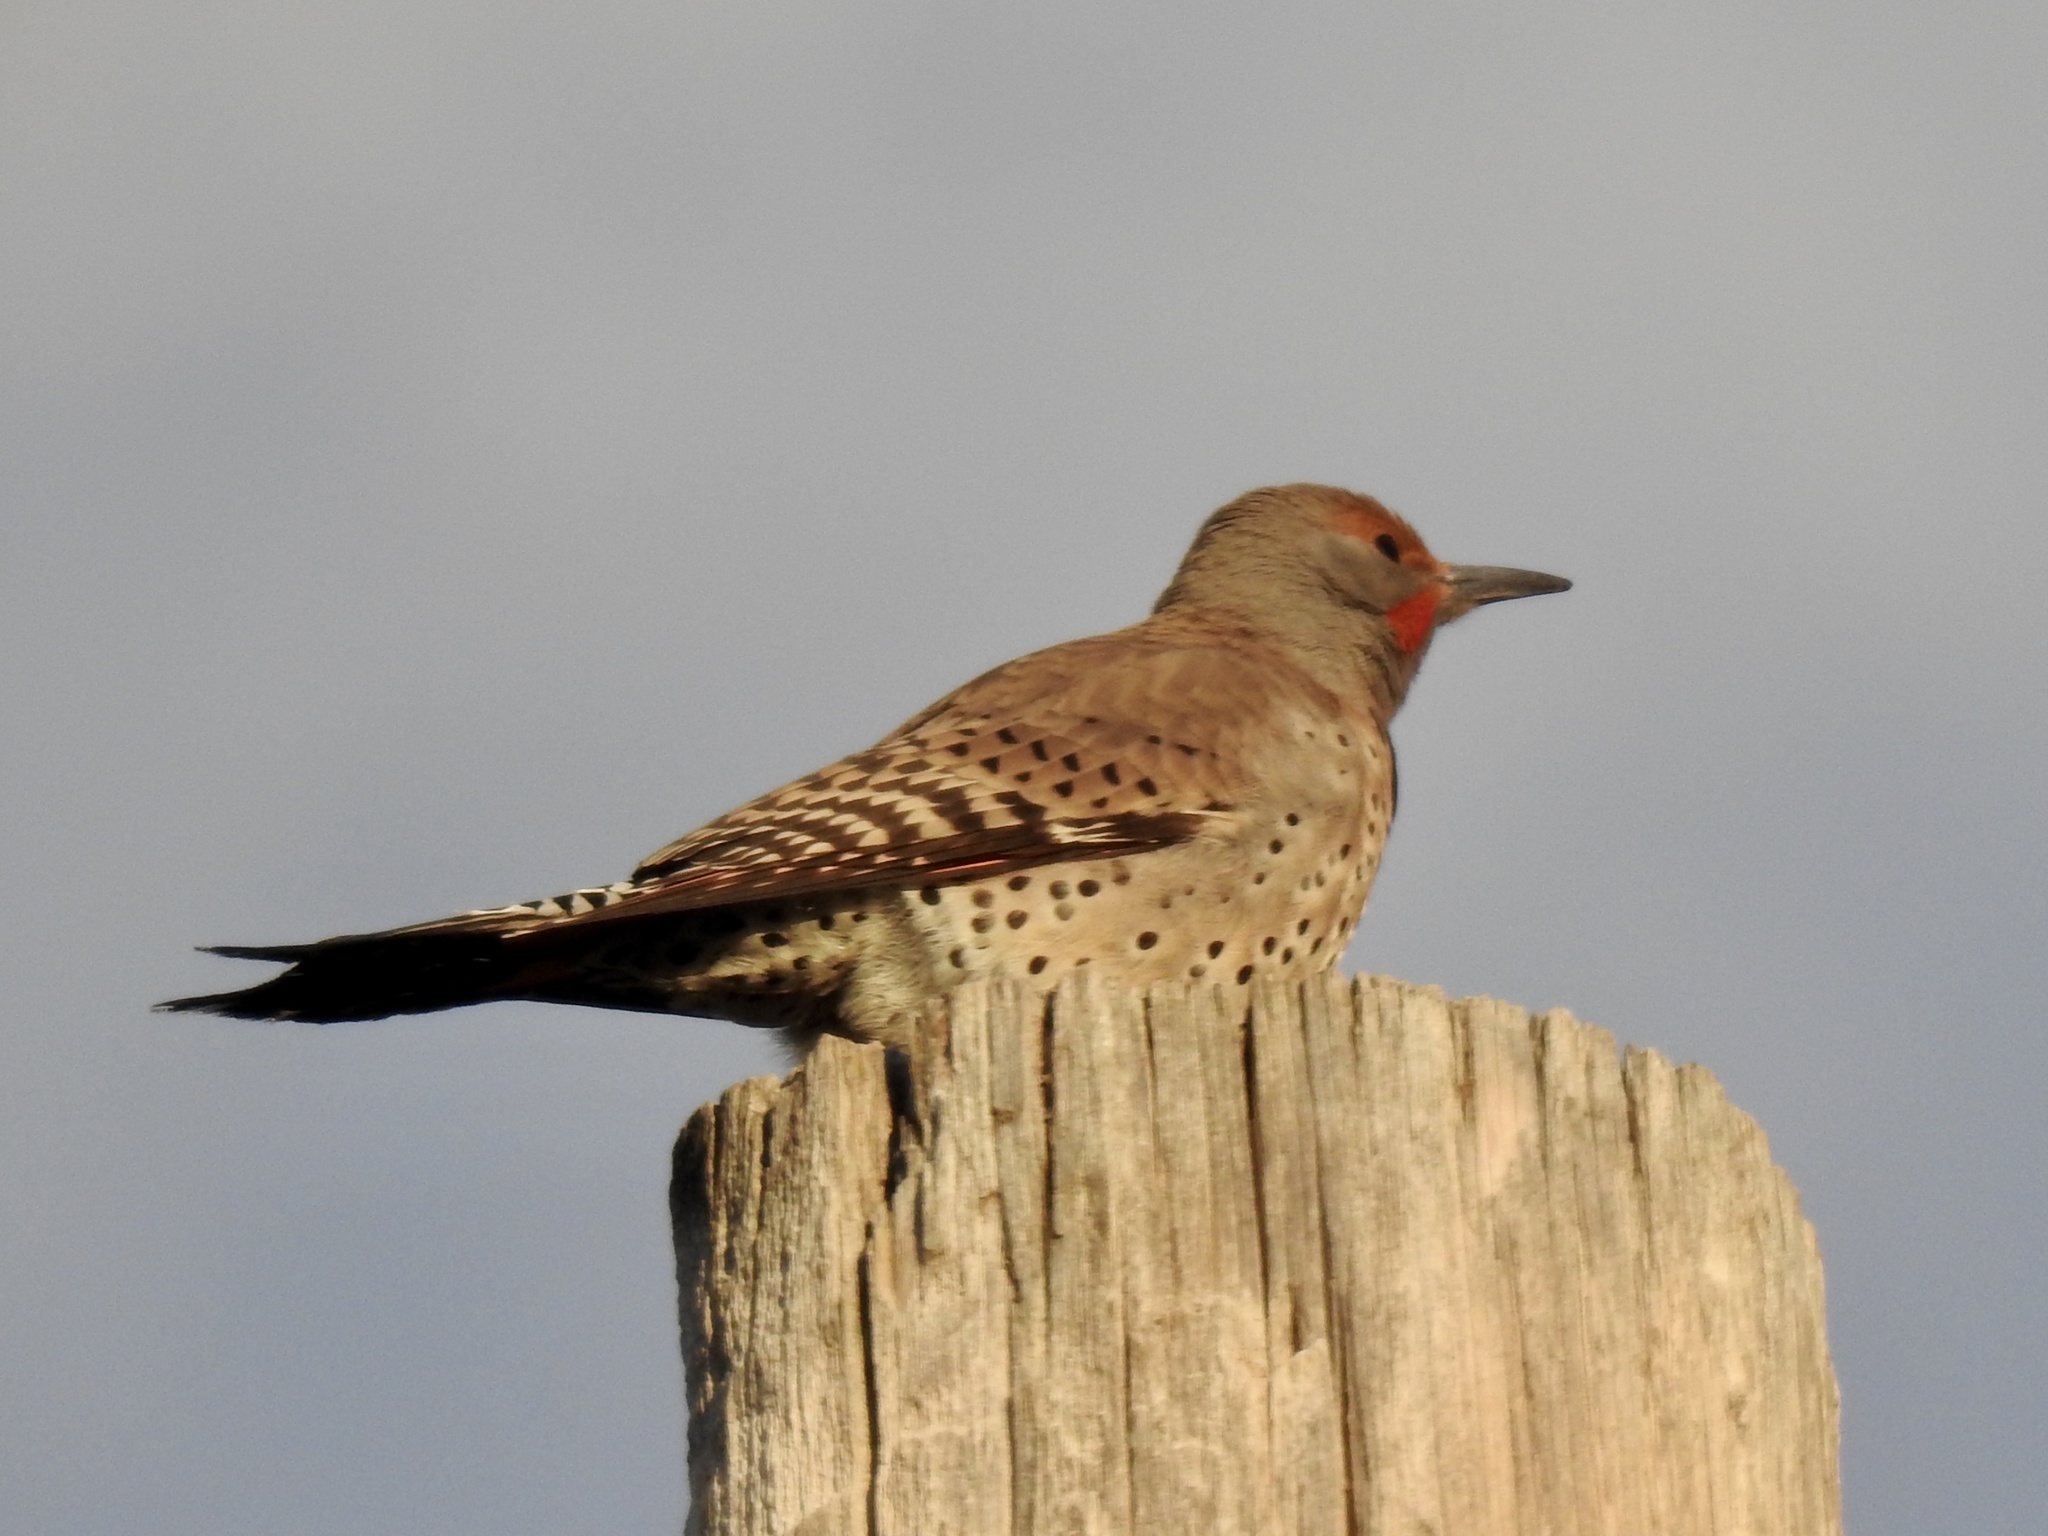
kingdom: Animalia
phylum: Chordata
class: Aves
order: Piciformes
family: Picidae
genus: Colaptes
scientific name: Colaptes auratus
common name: Northern flicker
